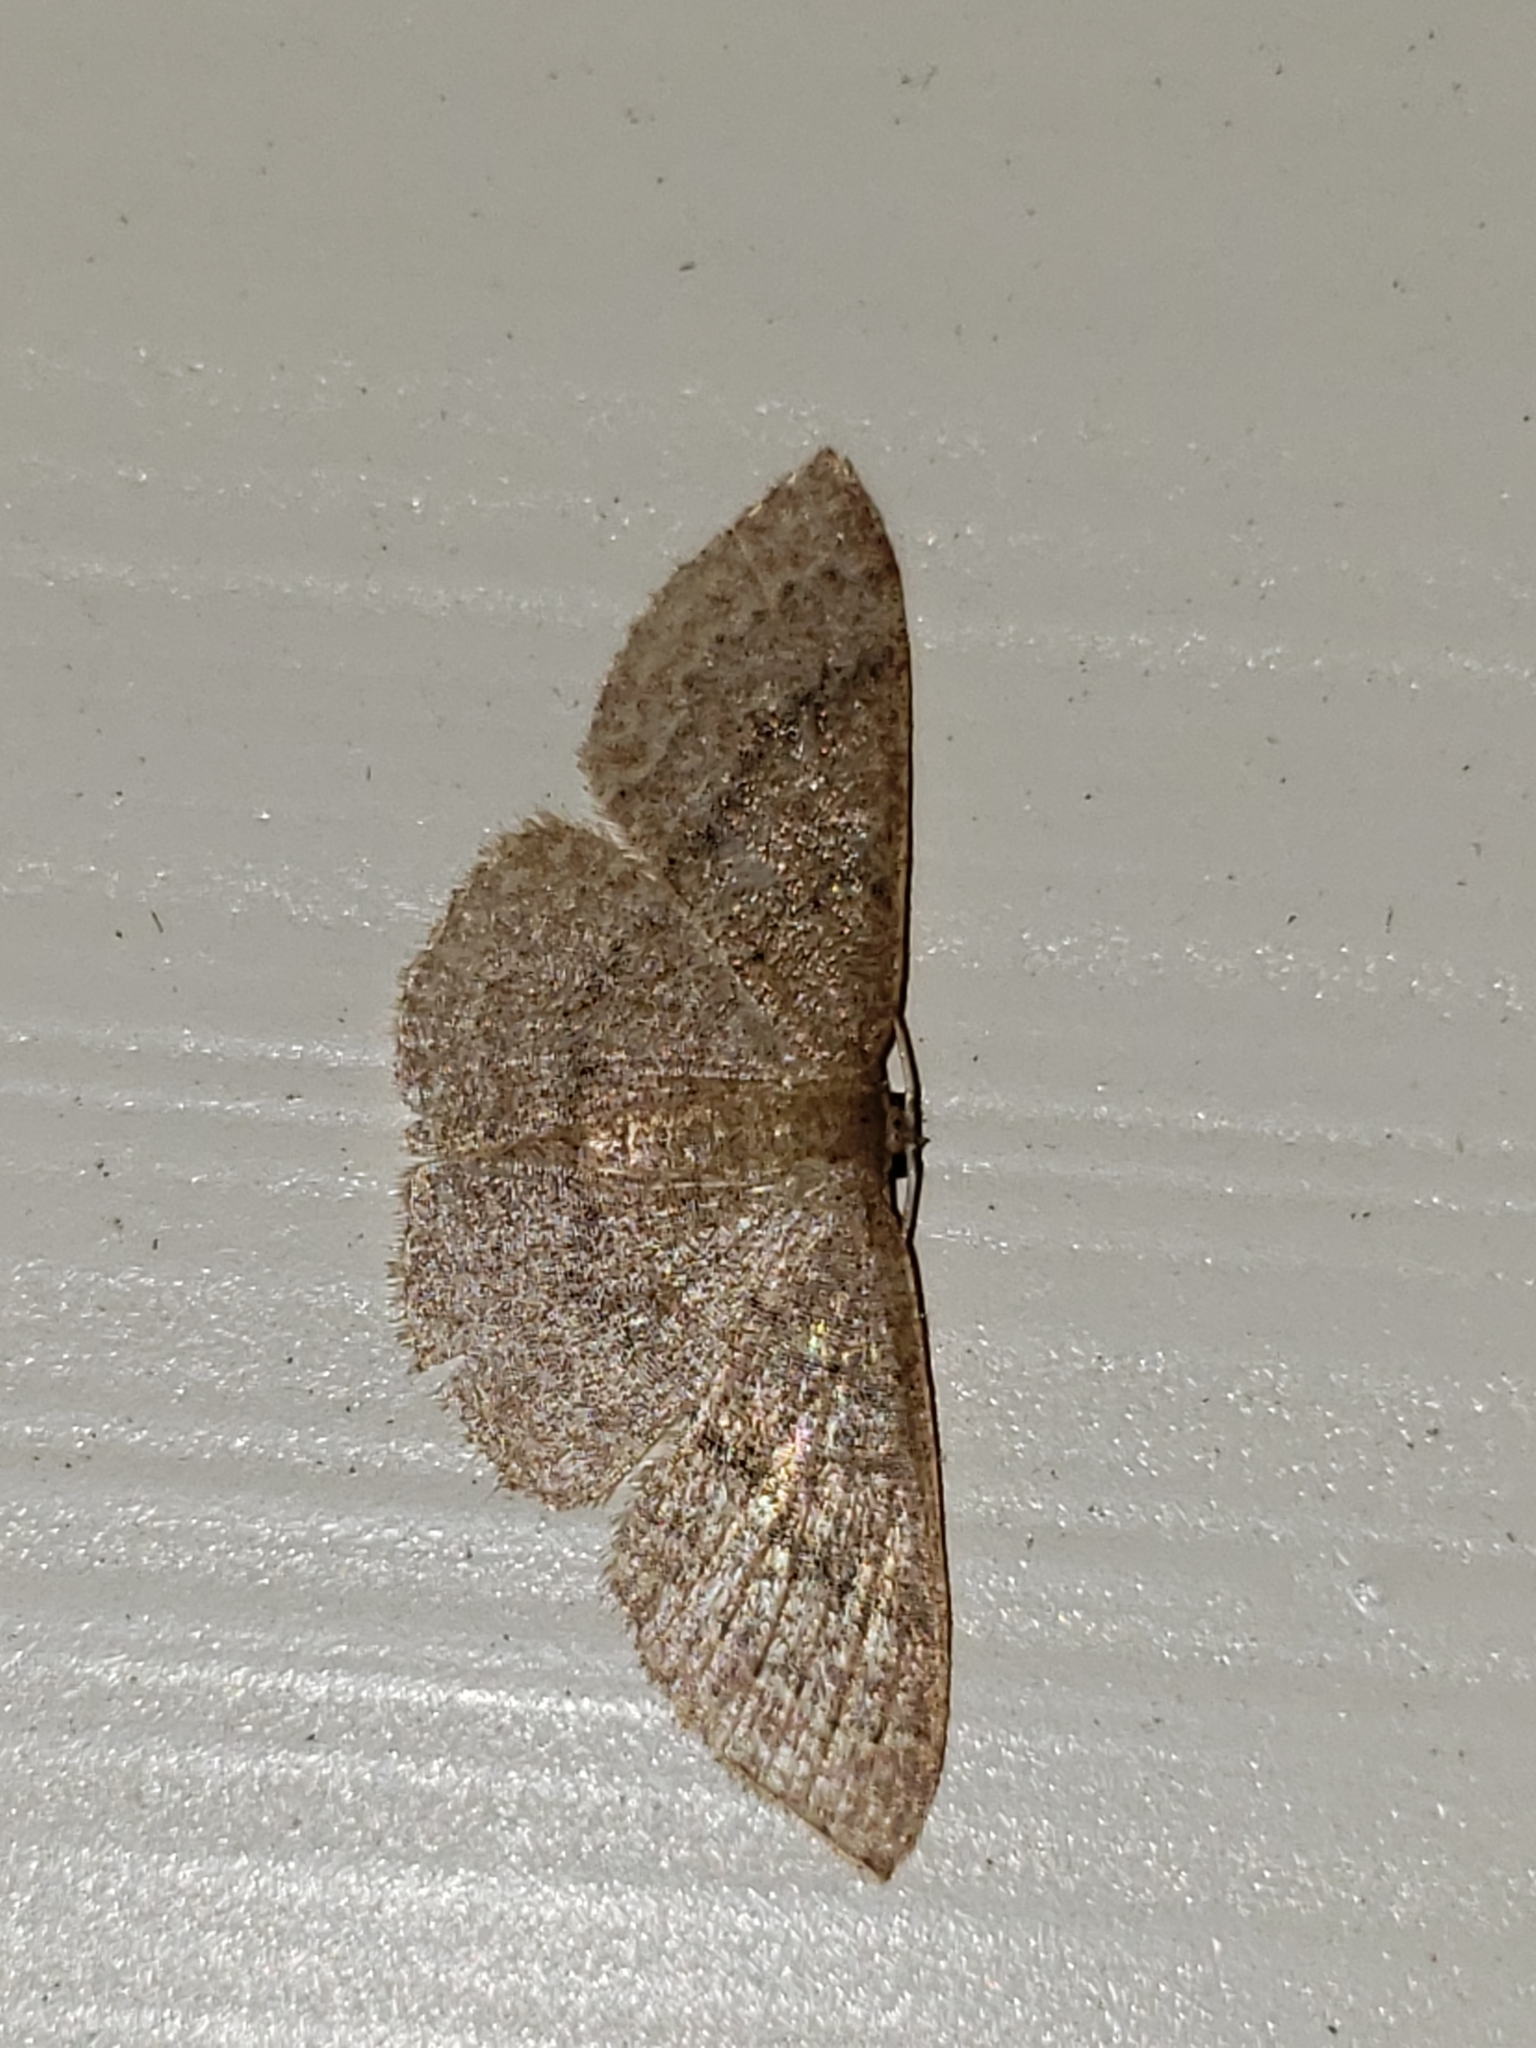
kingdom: Animalia
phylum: Arthropoda
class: Insecta
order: Lepidoptera
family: Geometridae
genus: Pleuroprucha
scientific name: Pleuroprucha insulsaria
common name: Common tan wave
